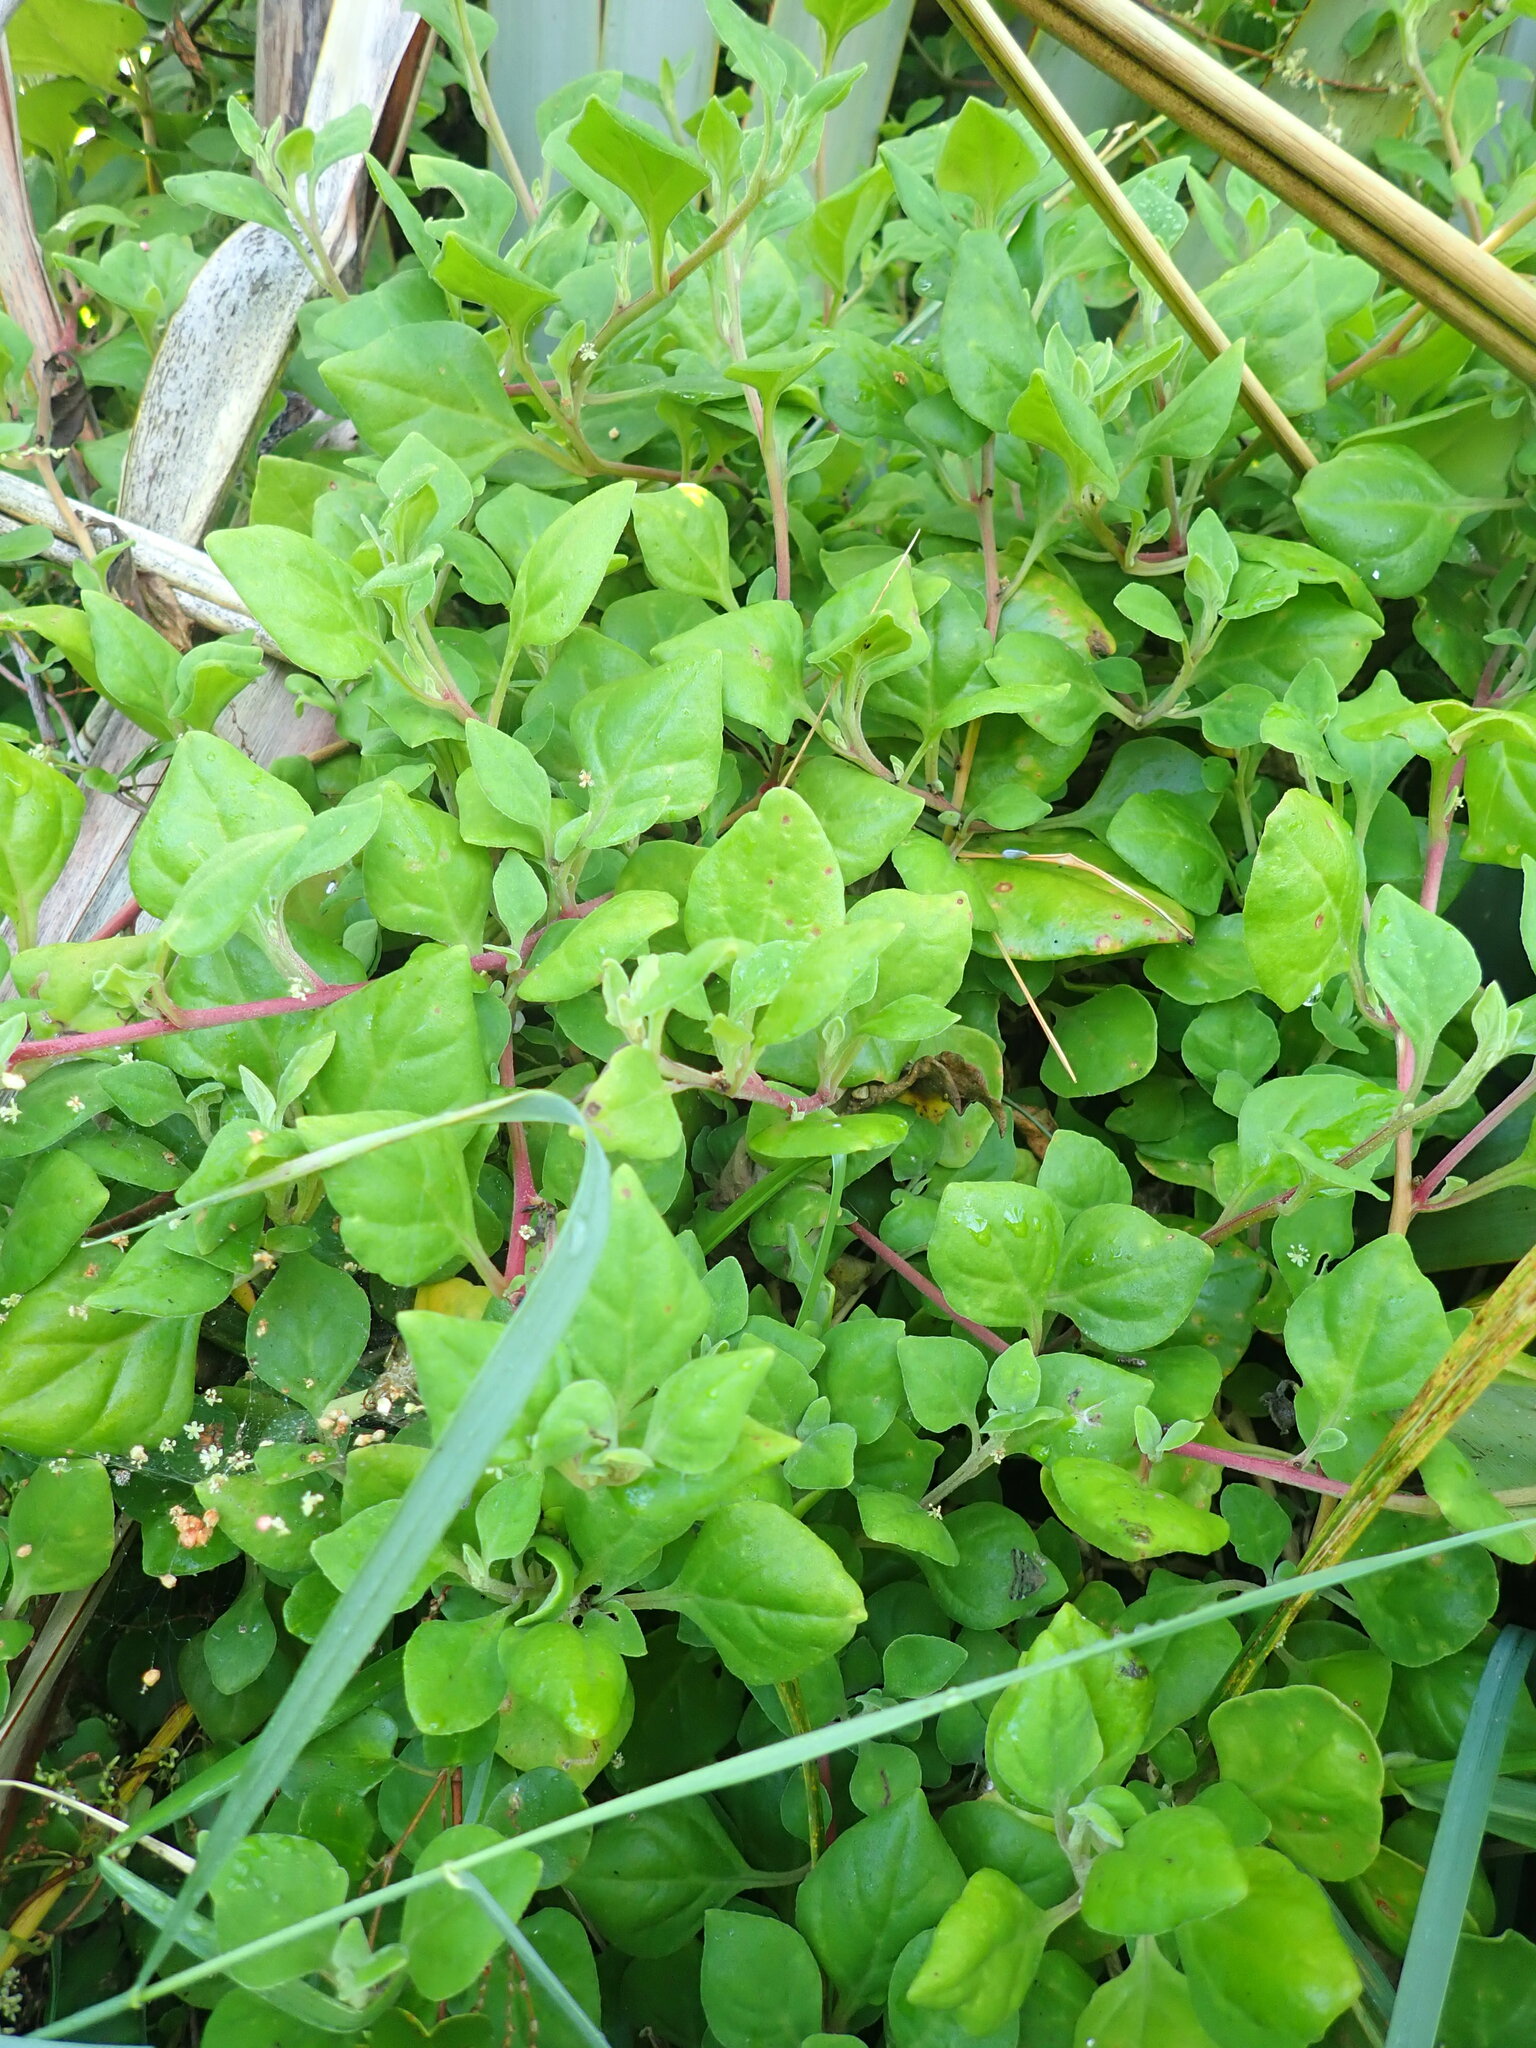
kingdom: Plantae
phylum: Tracheophyta
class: Magnoliopsida
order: Caryophyllales
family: Aizoaceae
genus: Tetragonia
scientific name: Tetragonia implexicoma
